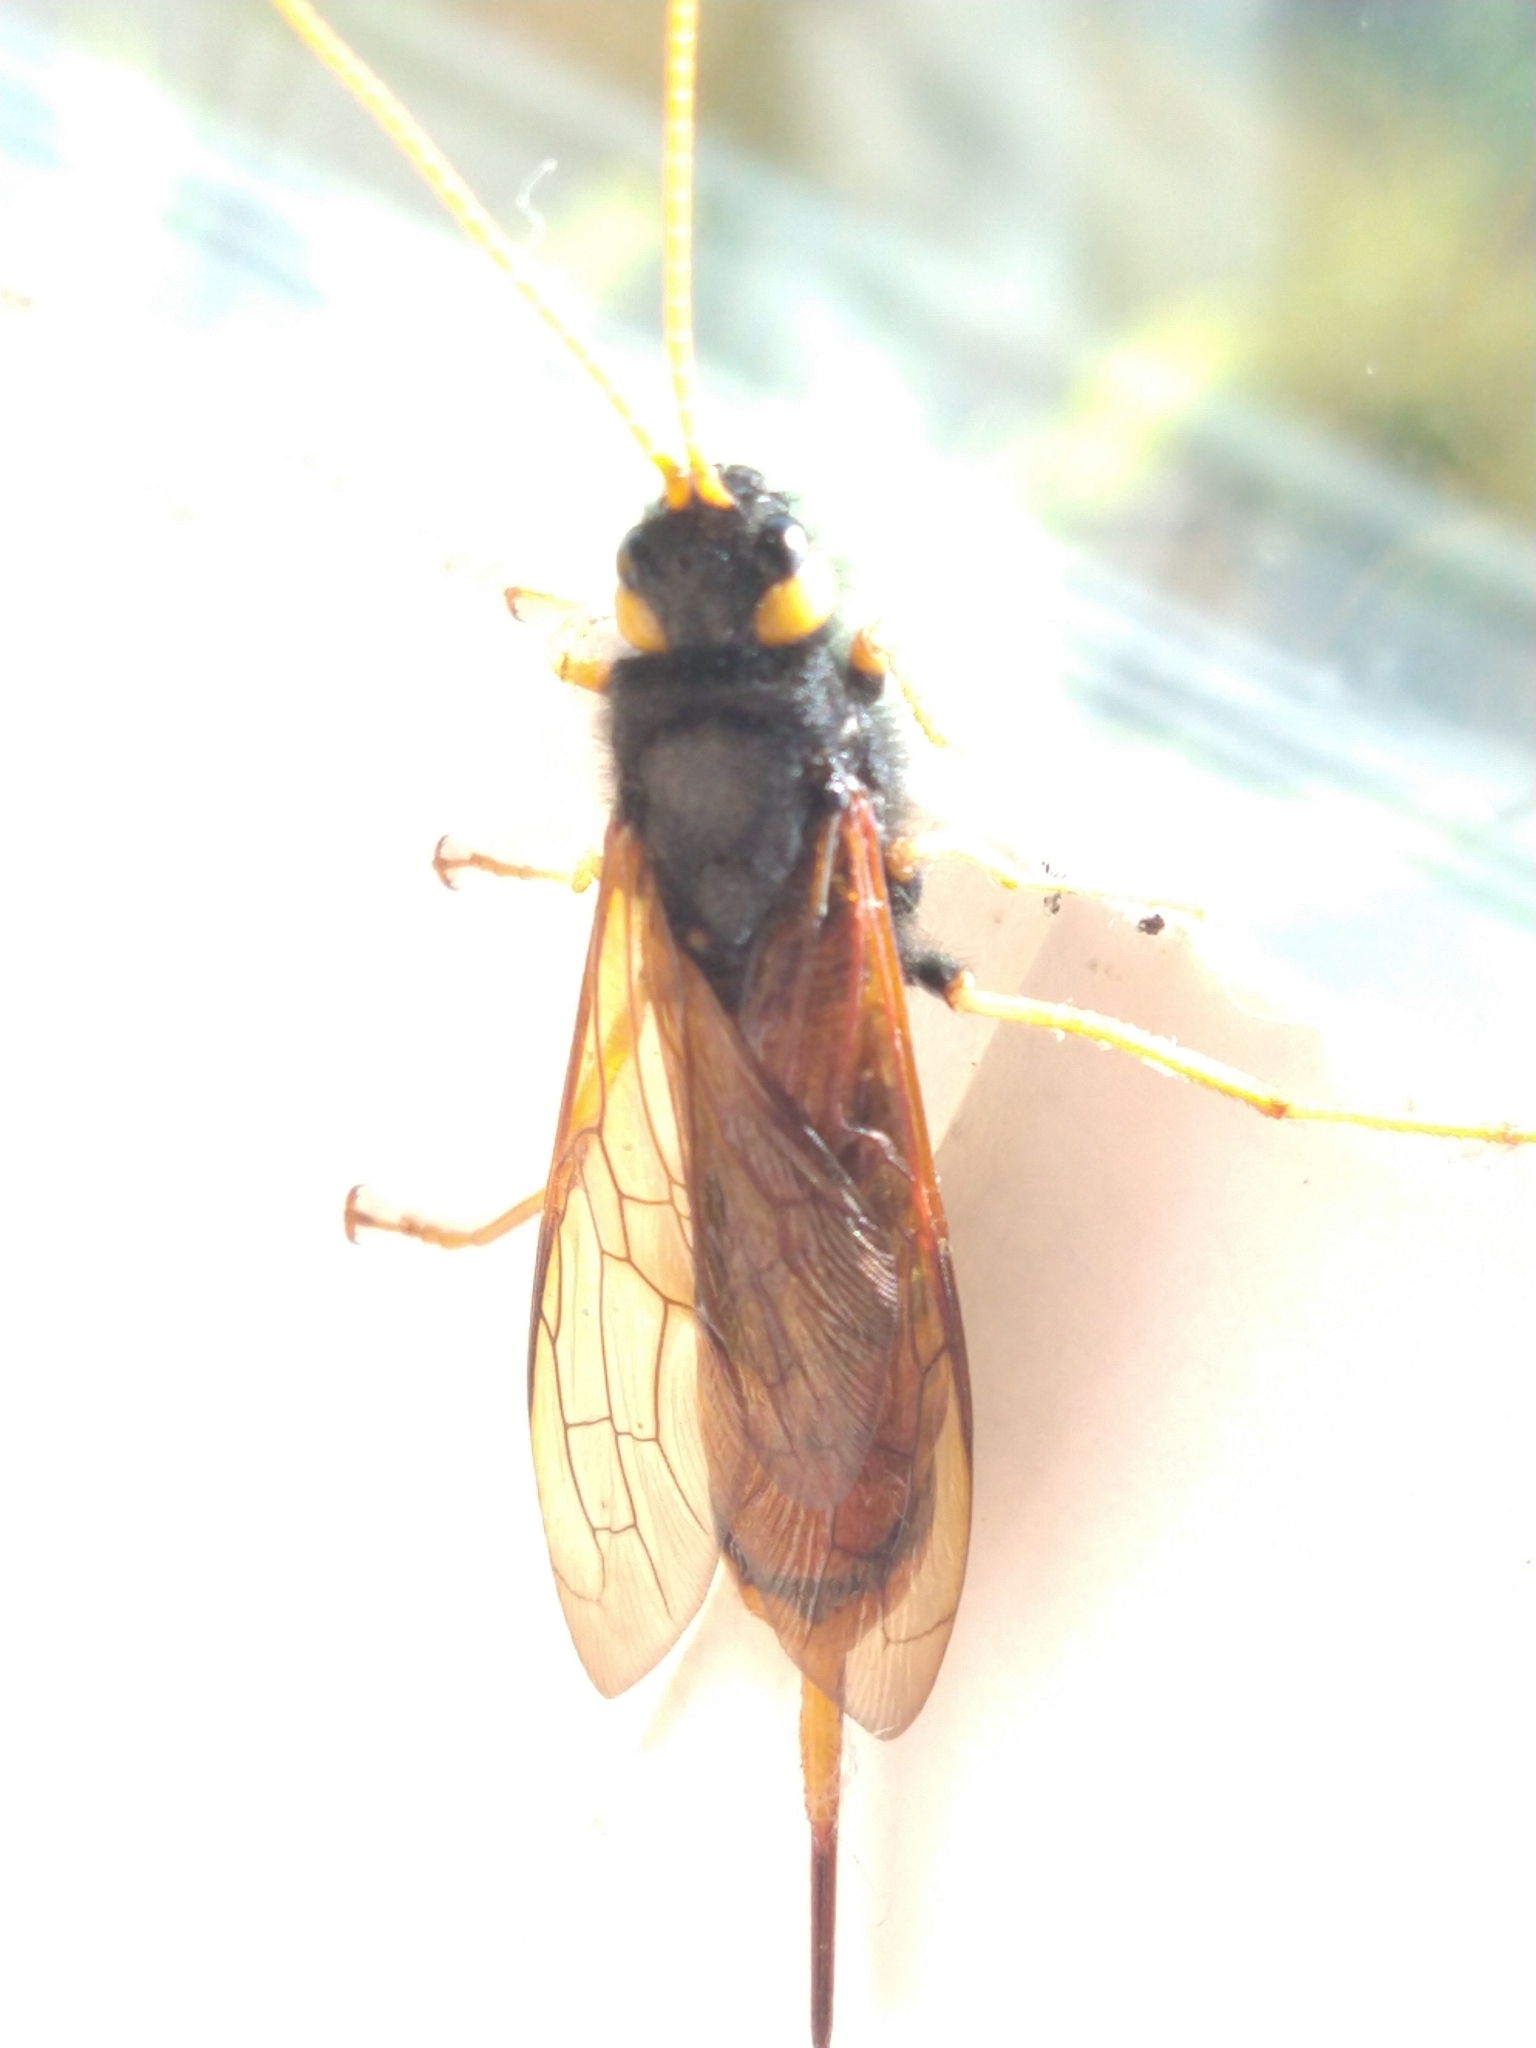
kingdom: Animalia
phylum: Arthropoda
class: Insecta
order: Hymenoptera
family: Siricidae
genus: Urocerus
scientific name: Urocerus gigas
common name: Giant woodwasp
